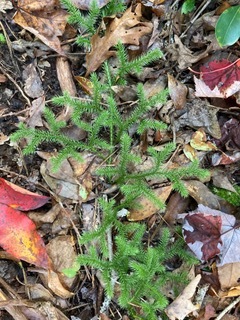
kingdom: Plantae
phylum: Tracheophyta
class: Lycopodiopsida
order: Lycopodiales
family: Lycopodiaceae
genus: Lycopodium
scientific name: Lycopodium clavatum
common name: Stag's-horn clubmoss
